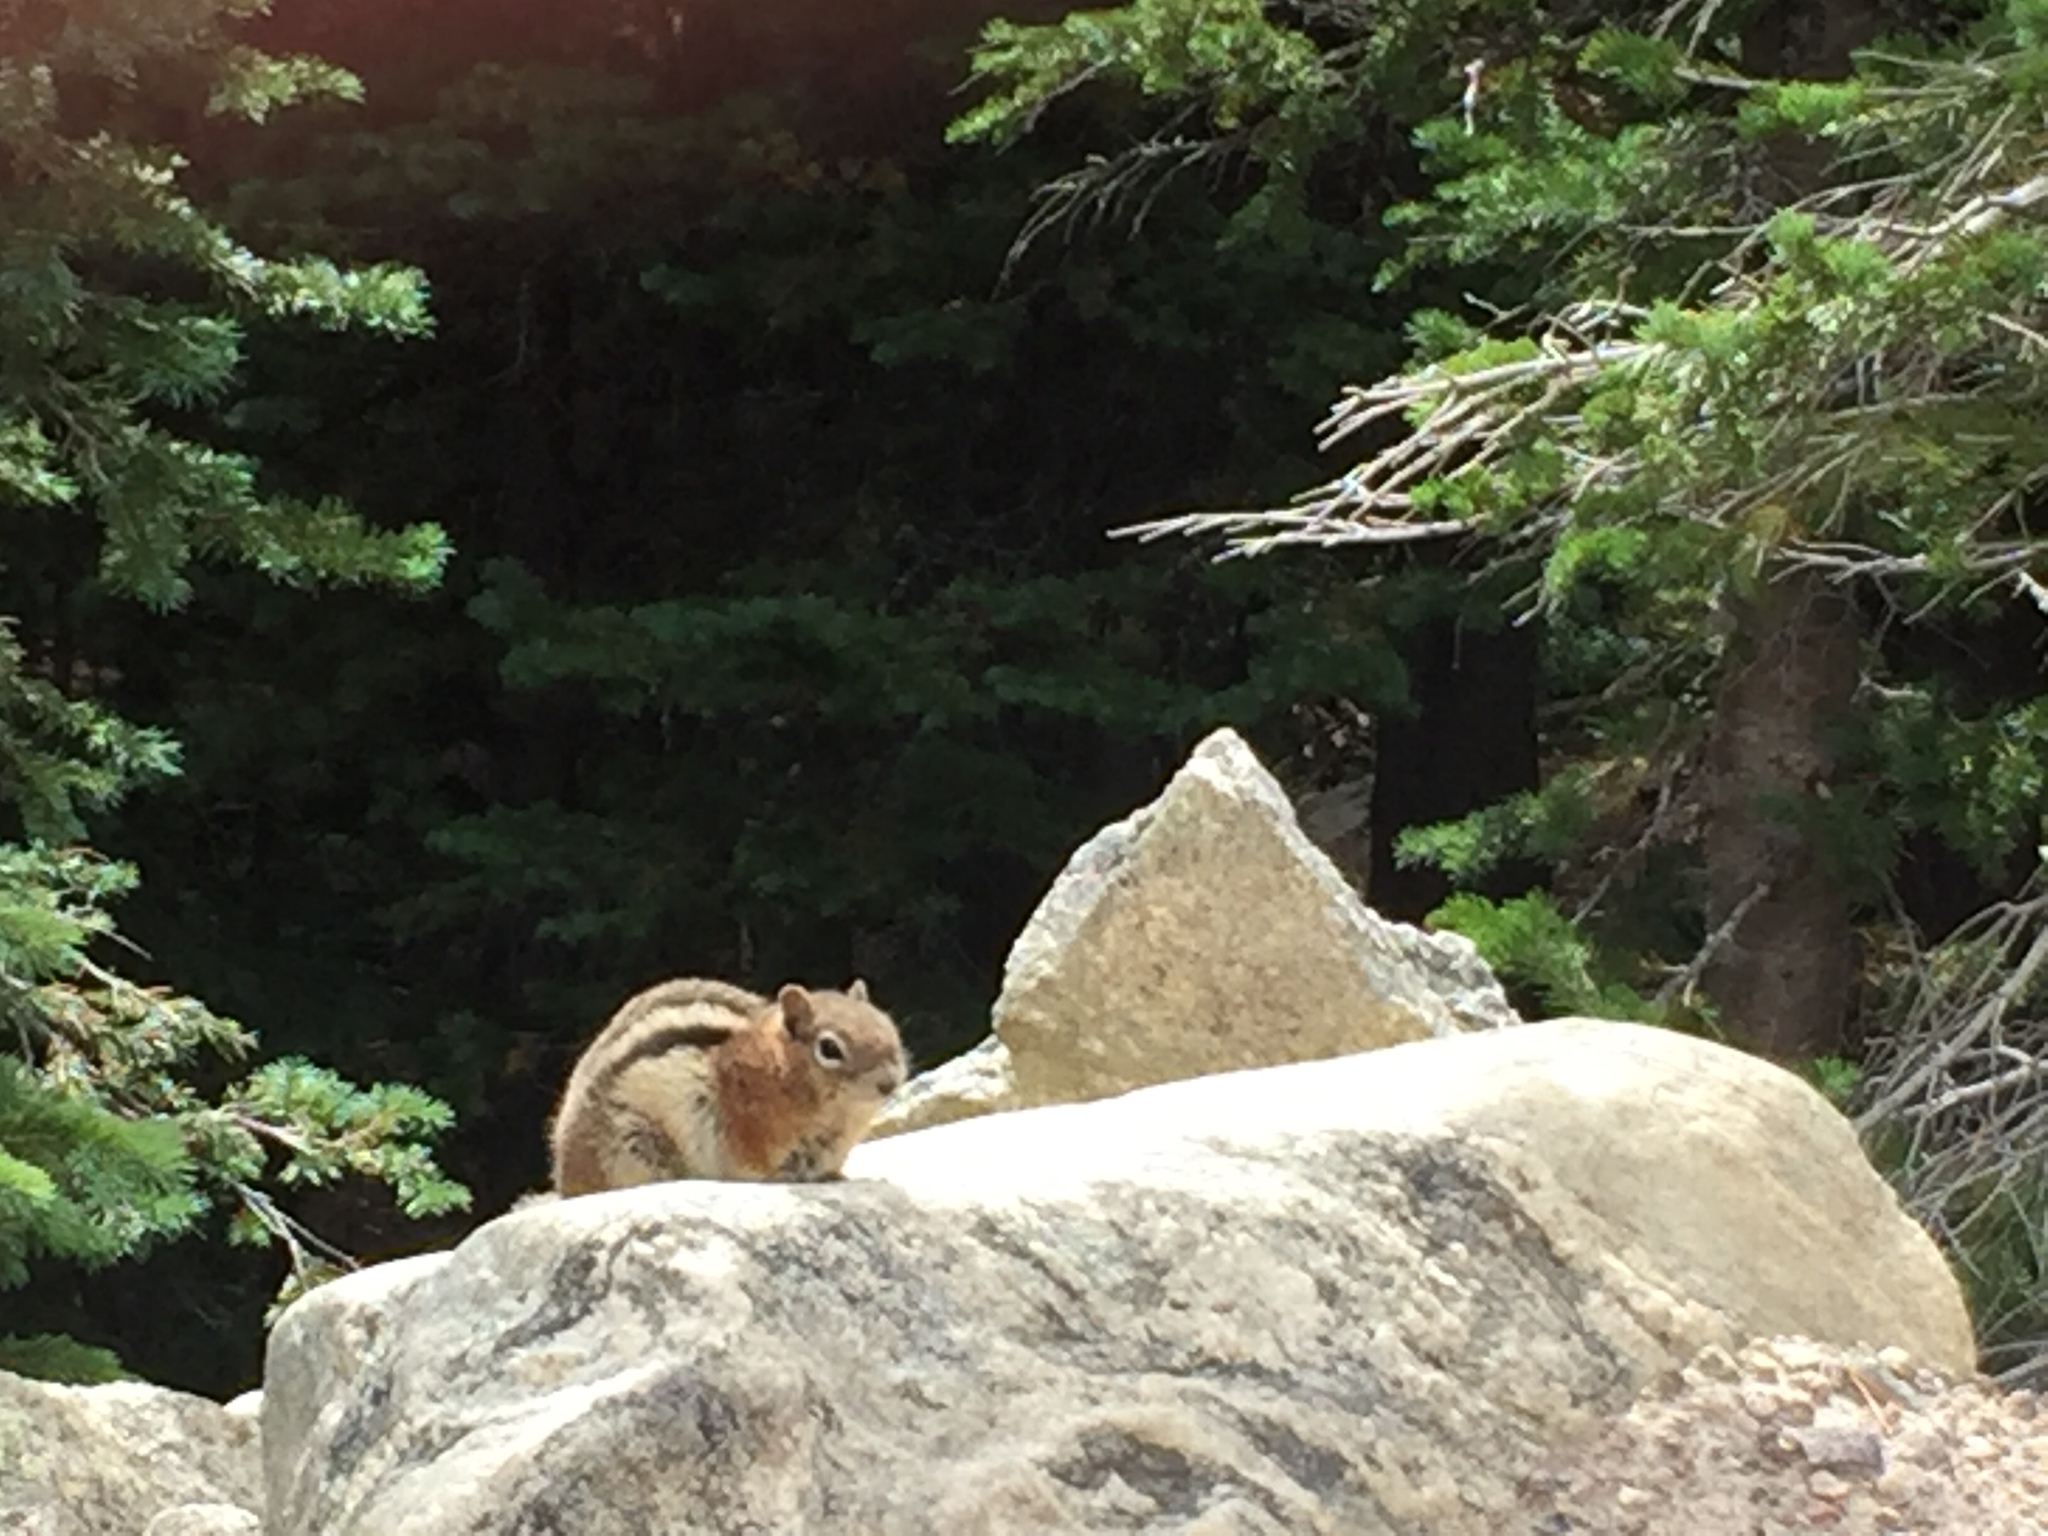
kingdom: Animalia
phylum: Chordata
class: Mammalia
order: Rodentia
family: Sciuridae
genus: Callospermophilus
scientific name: Callospermophilus lateralis
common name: Golden-mantled ground squirrel
